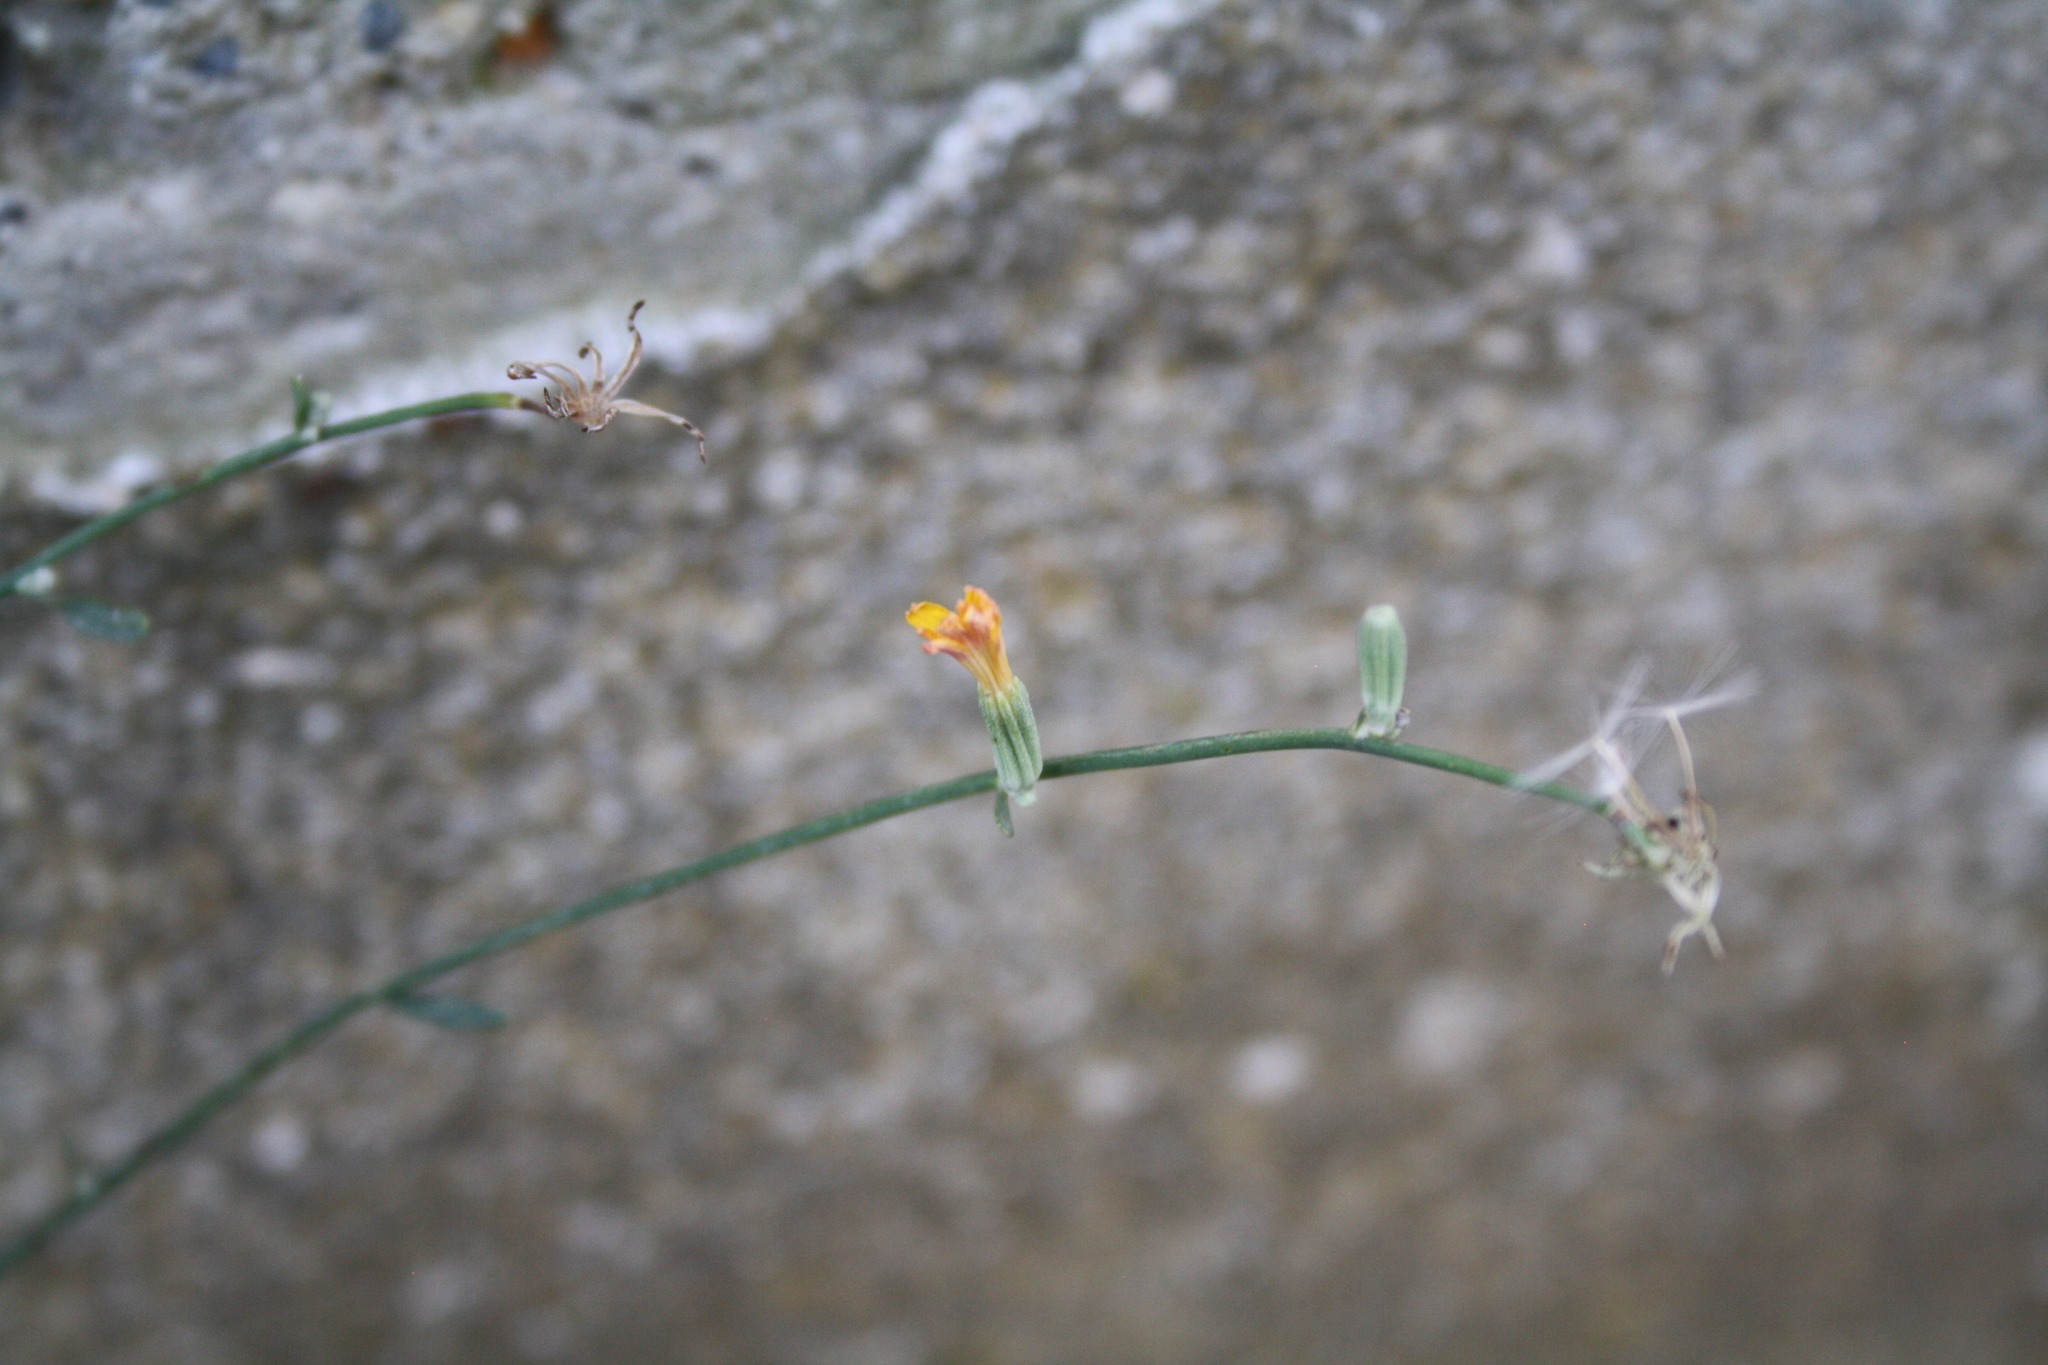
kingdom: Plantae
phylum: Tracheophyta
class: Magnoliopsida
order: Asterales
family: Asteraceae
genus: Chondrilla
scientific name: Chondrilla juncea
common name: Skeleton weed
